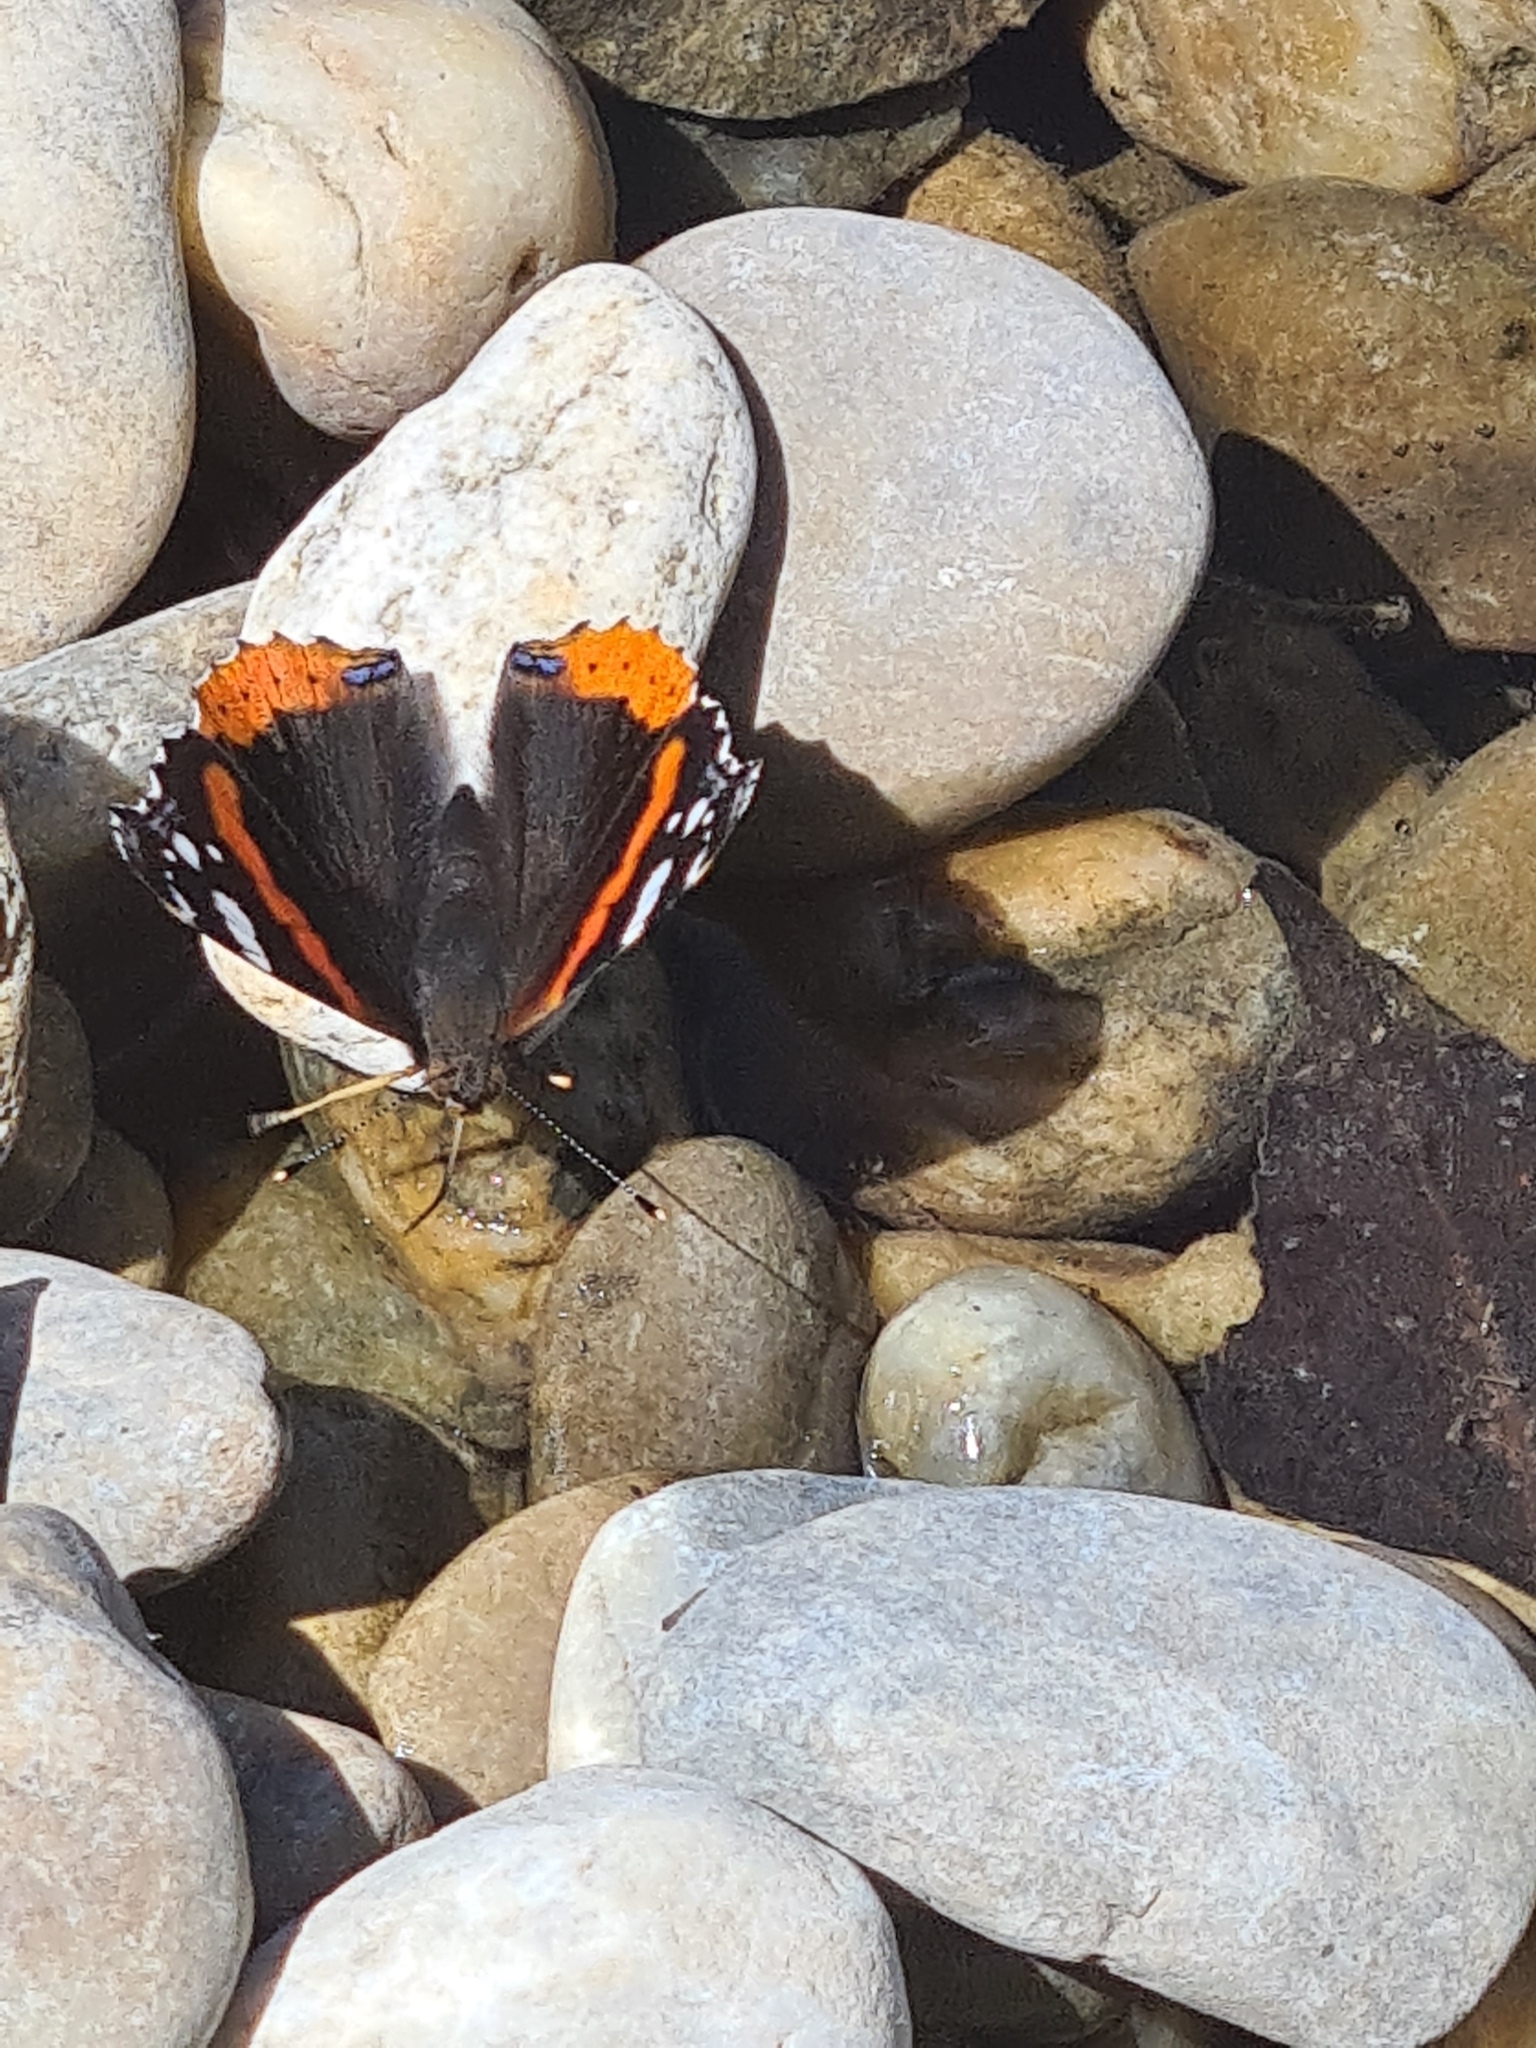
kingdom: Animalia
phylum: Arthropoda
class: Insecta
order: Lepidoptera
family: Nymphalidae
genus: Vanessa
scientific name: Vanessa atalanta
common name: Red admiral
